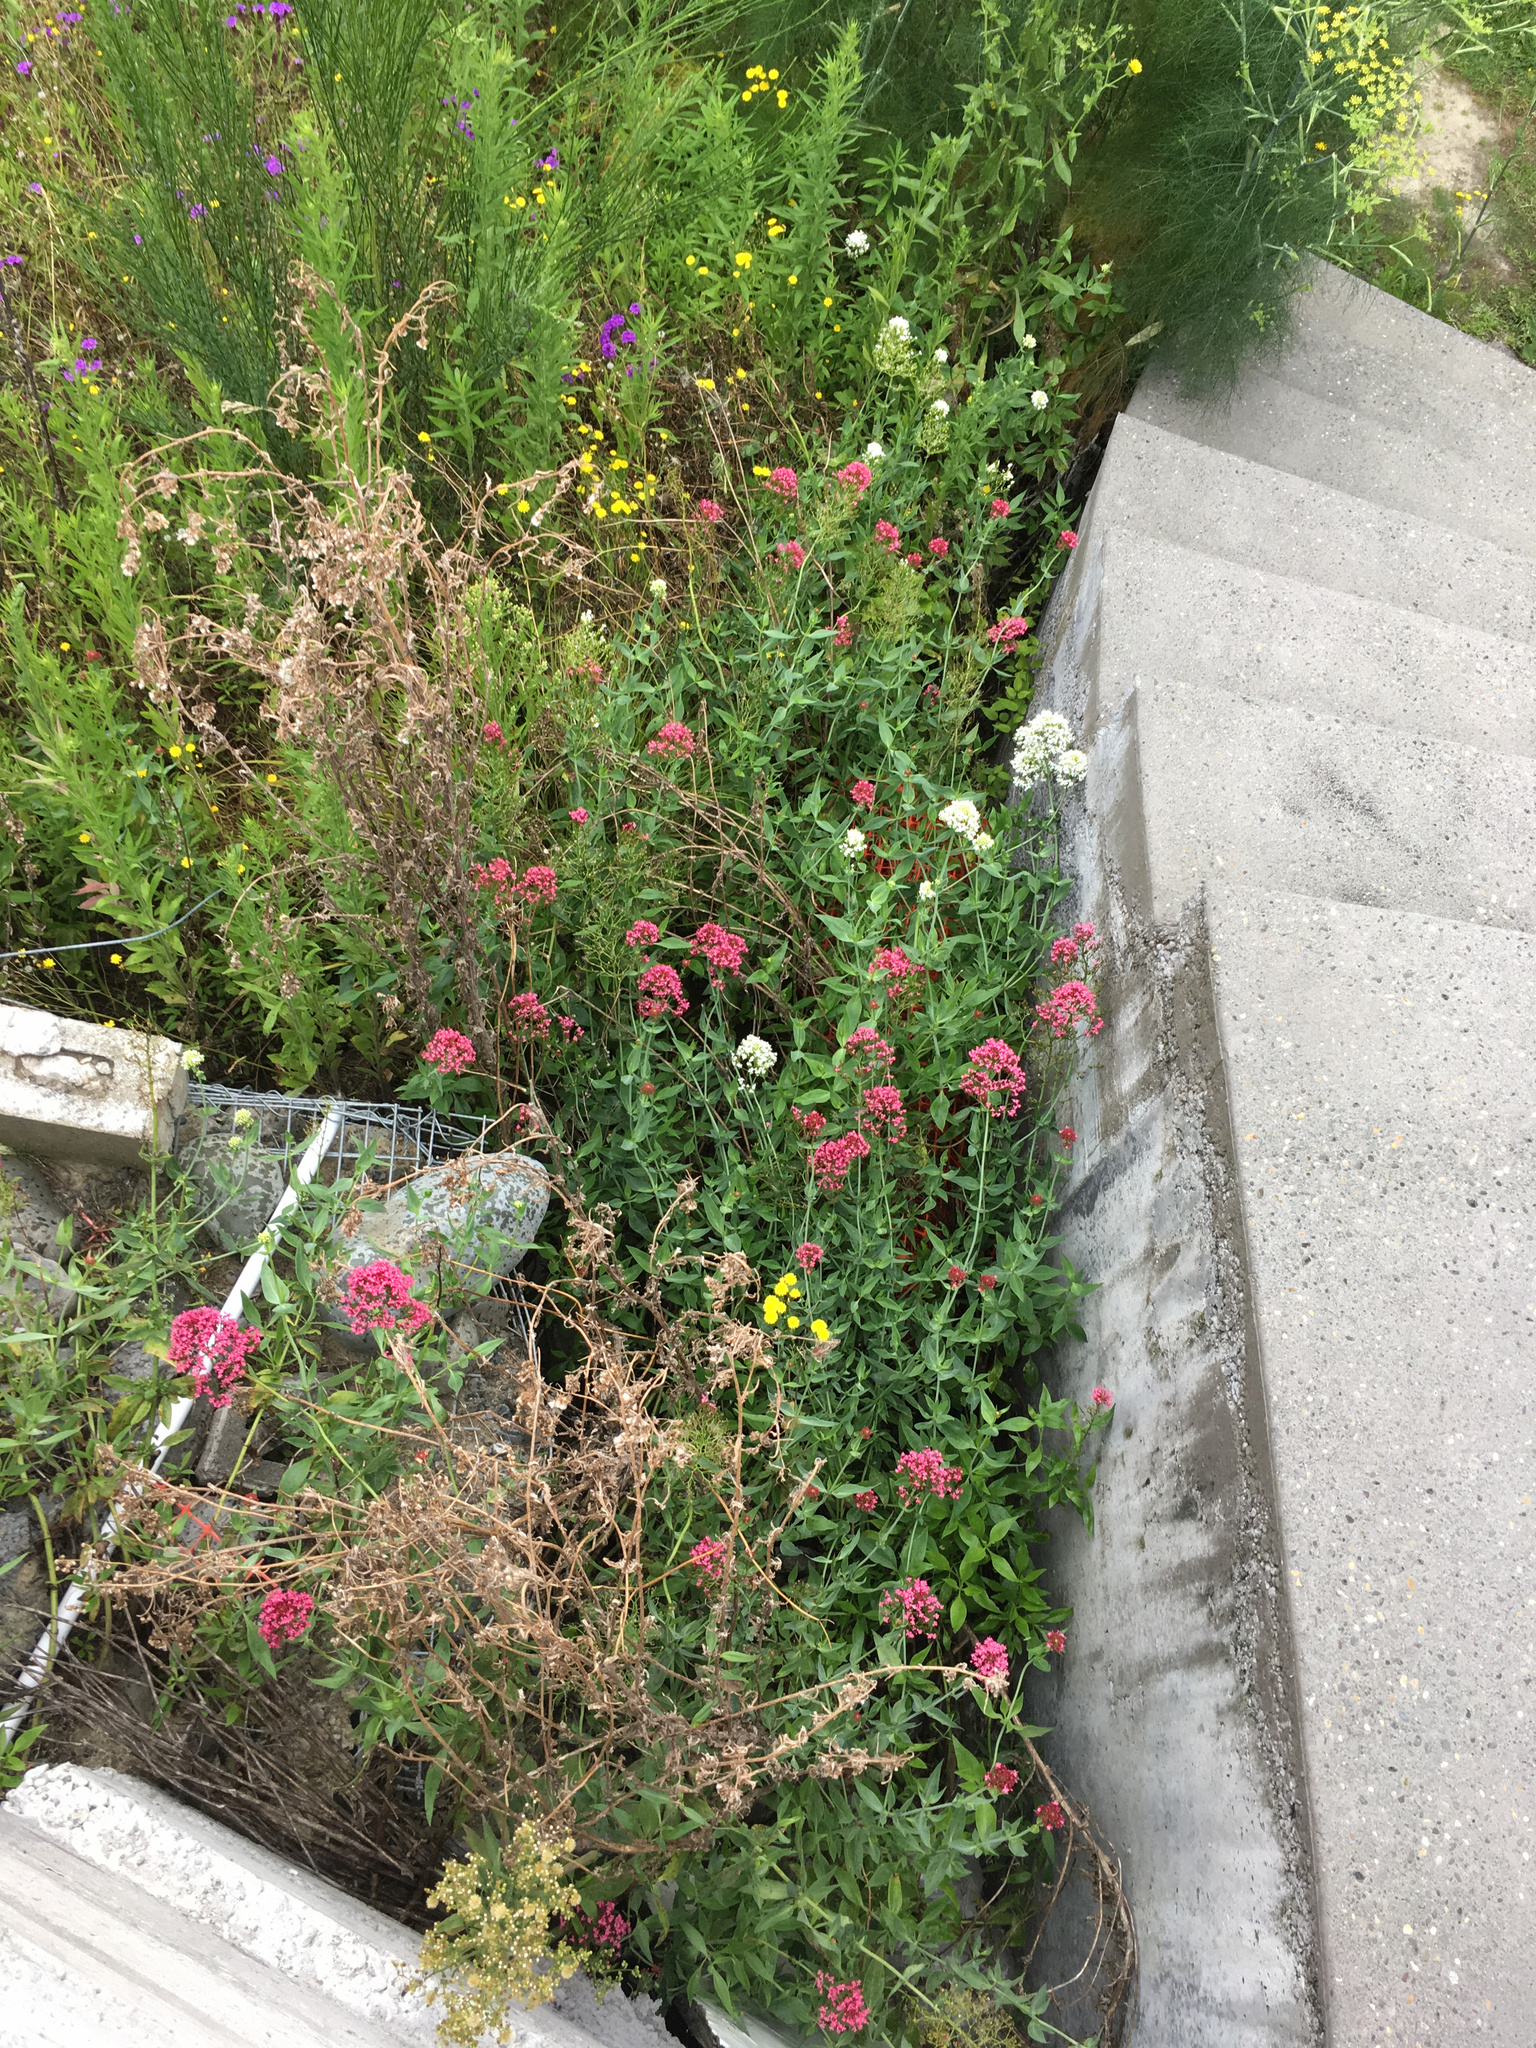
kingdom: Plantae
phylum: Tracheophyta
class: Magnoliopsida
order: Dipsacales
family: Caprifoliaceae
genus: Centranthus
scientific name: Centranthus ruber
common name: Red valerian
